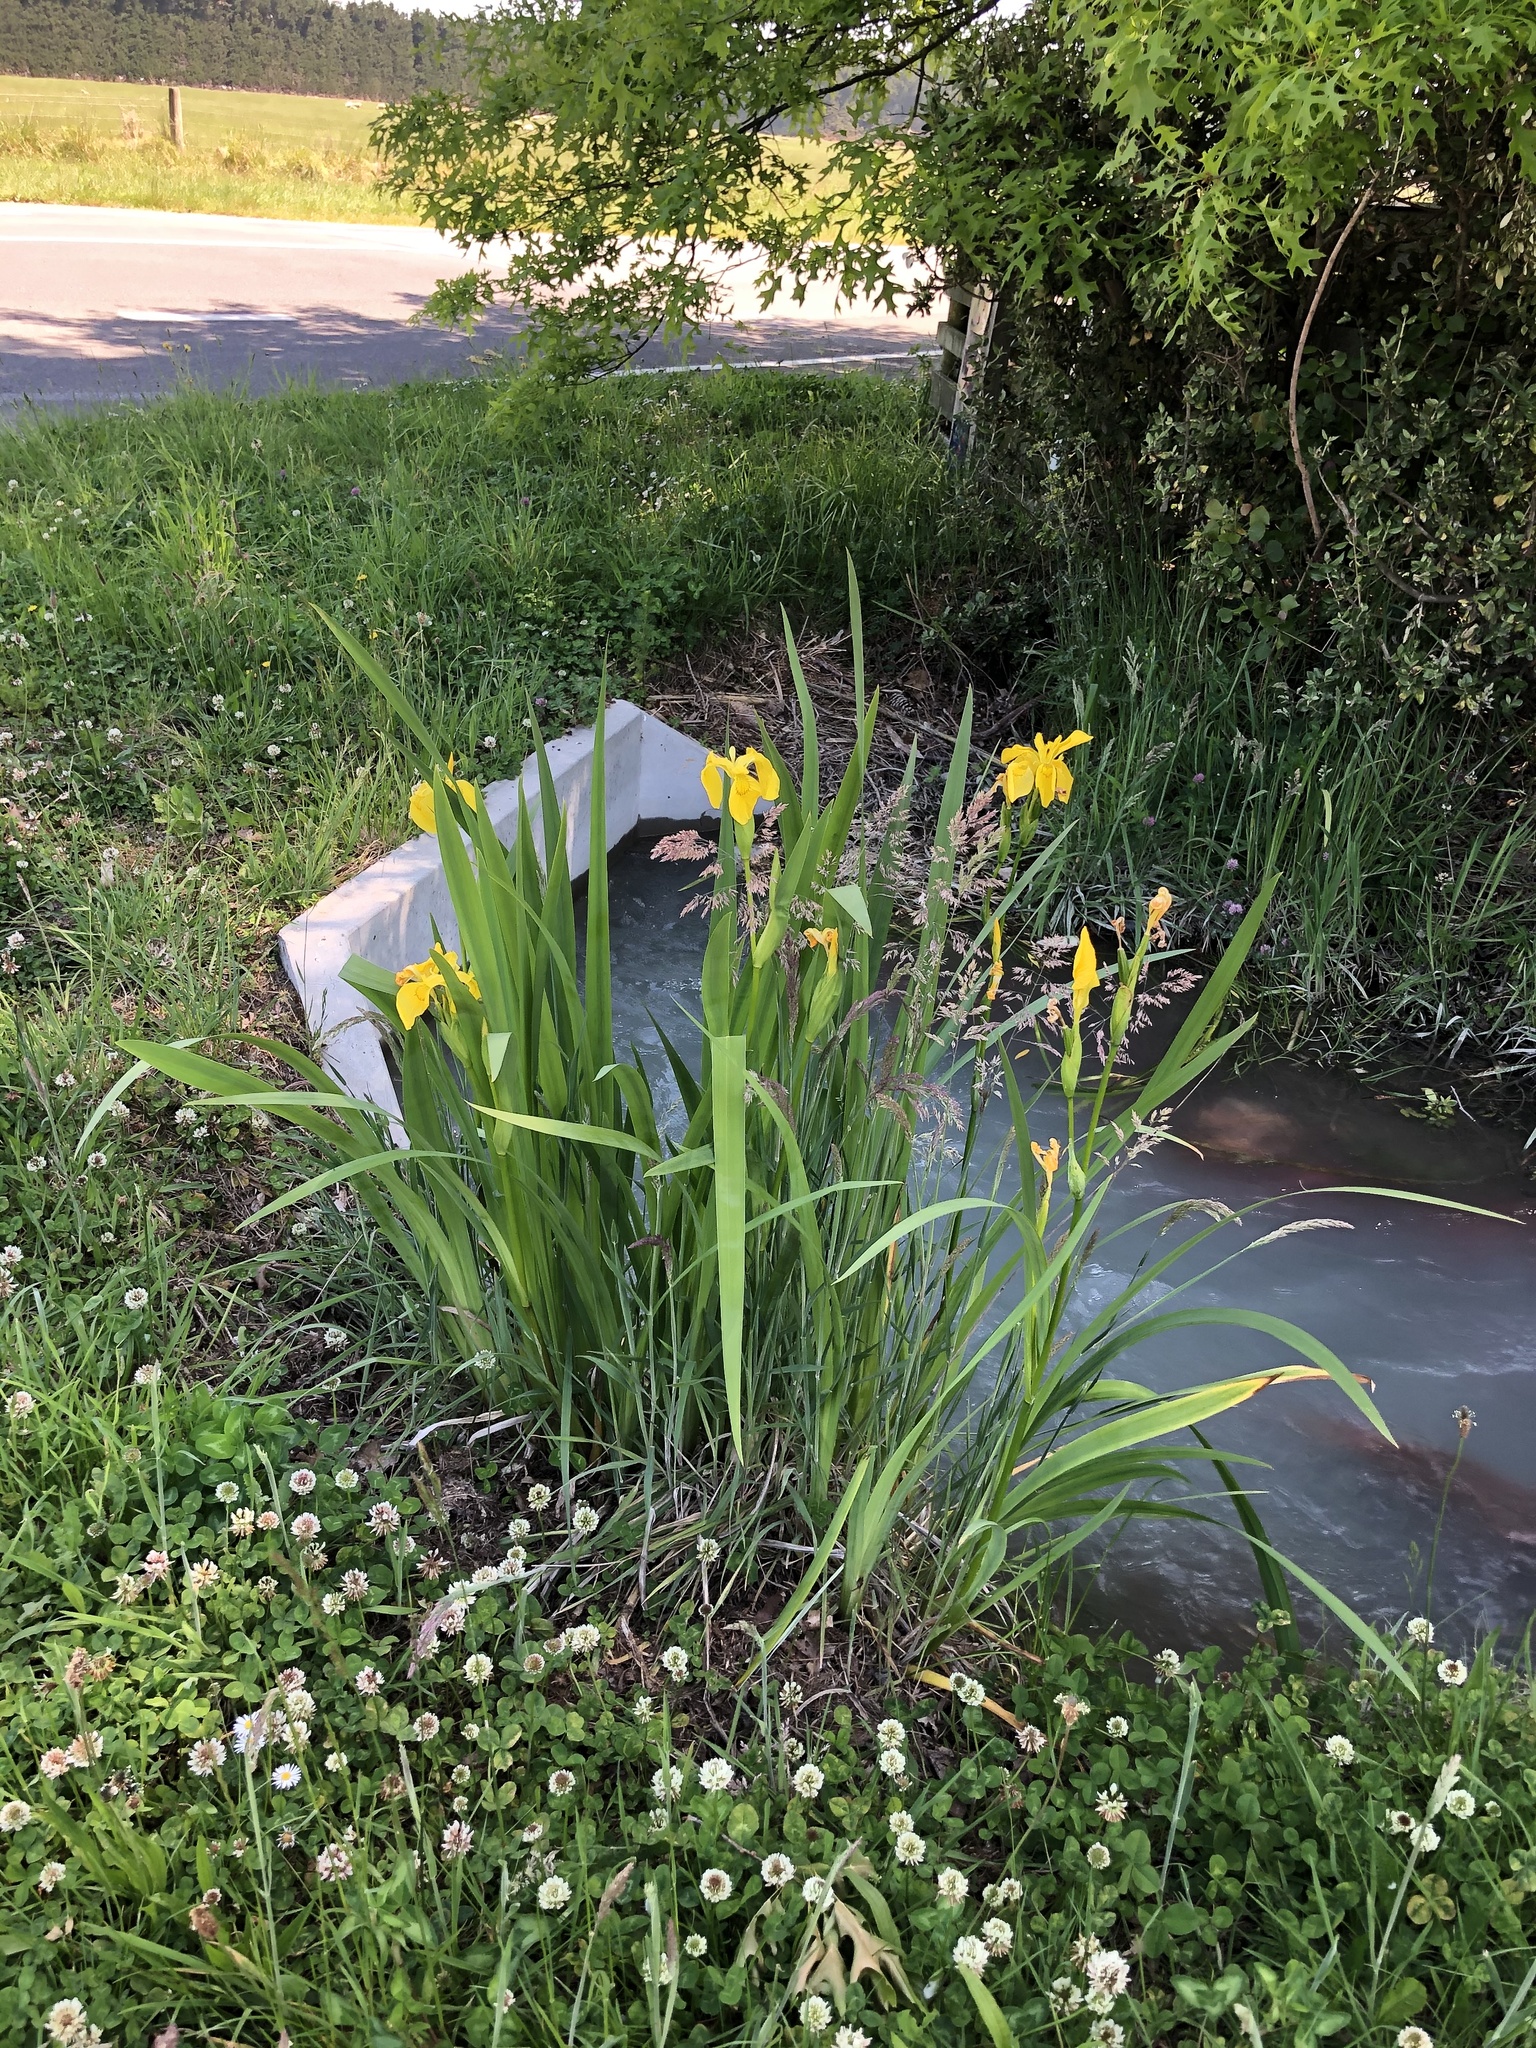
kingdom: Plantae
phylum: Tracheophyta
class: Liliopsida
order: Asparagales
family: Iridaceae
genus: Iris
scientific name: Iris pseudacorus
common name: Yellow flag
